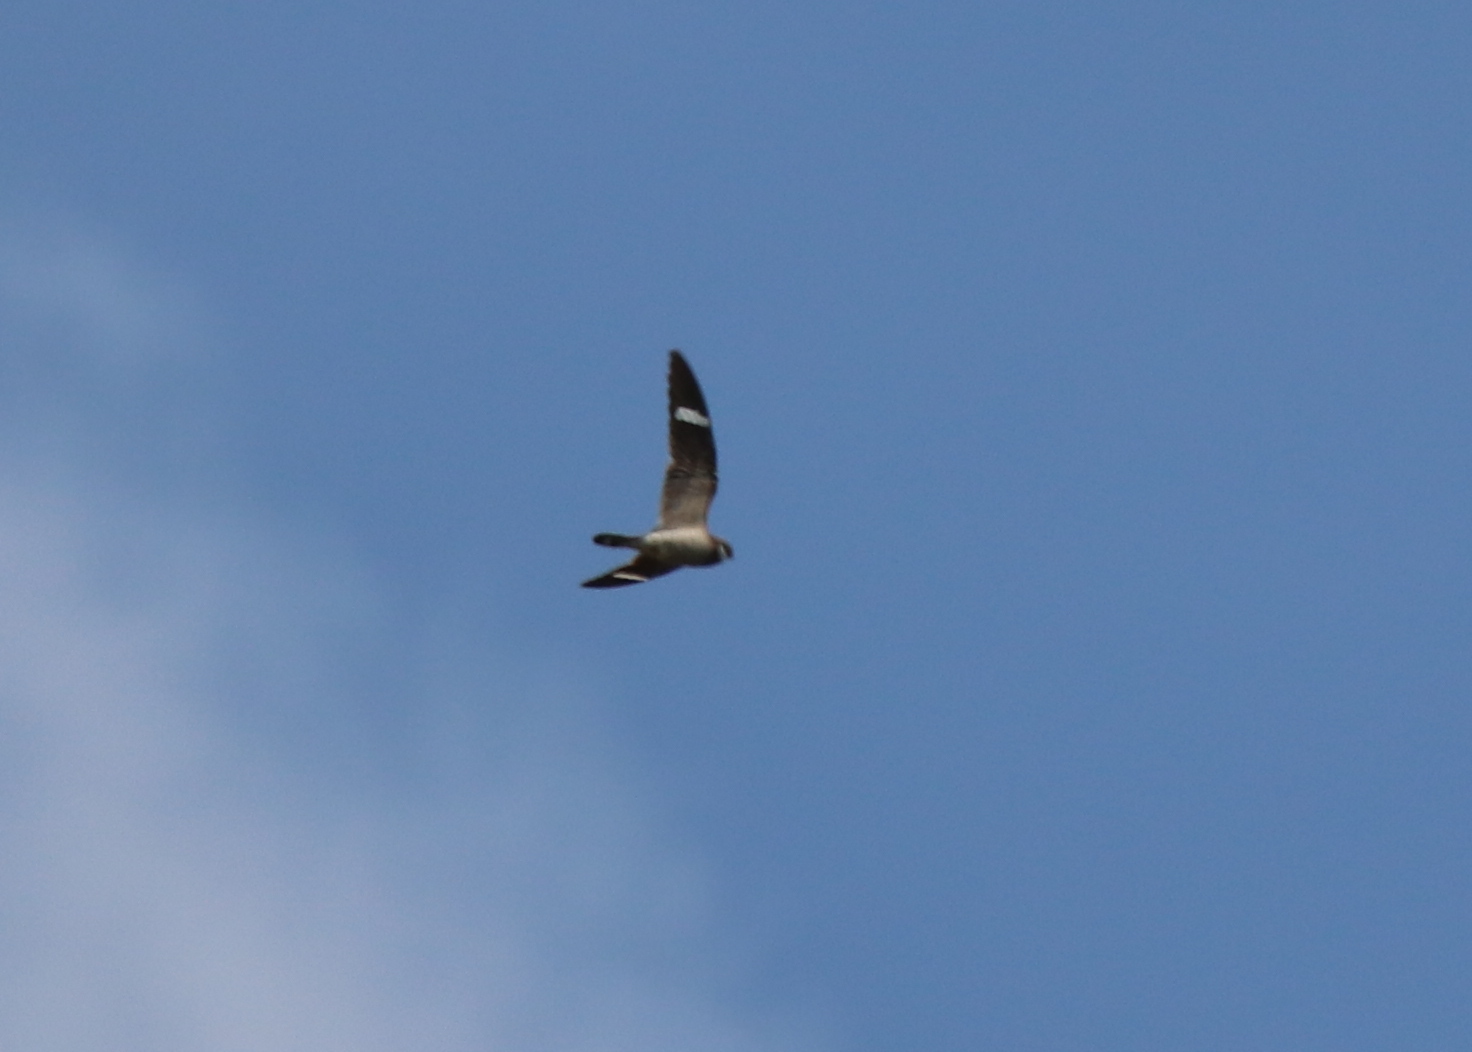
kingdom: Animalia
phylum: Chordata
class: Aves
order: Caprimulgiformes
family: Caprimulgidae
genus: Chordeiles
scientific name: Chordeiles minor
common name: Common nighthawk
